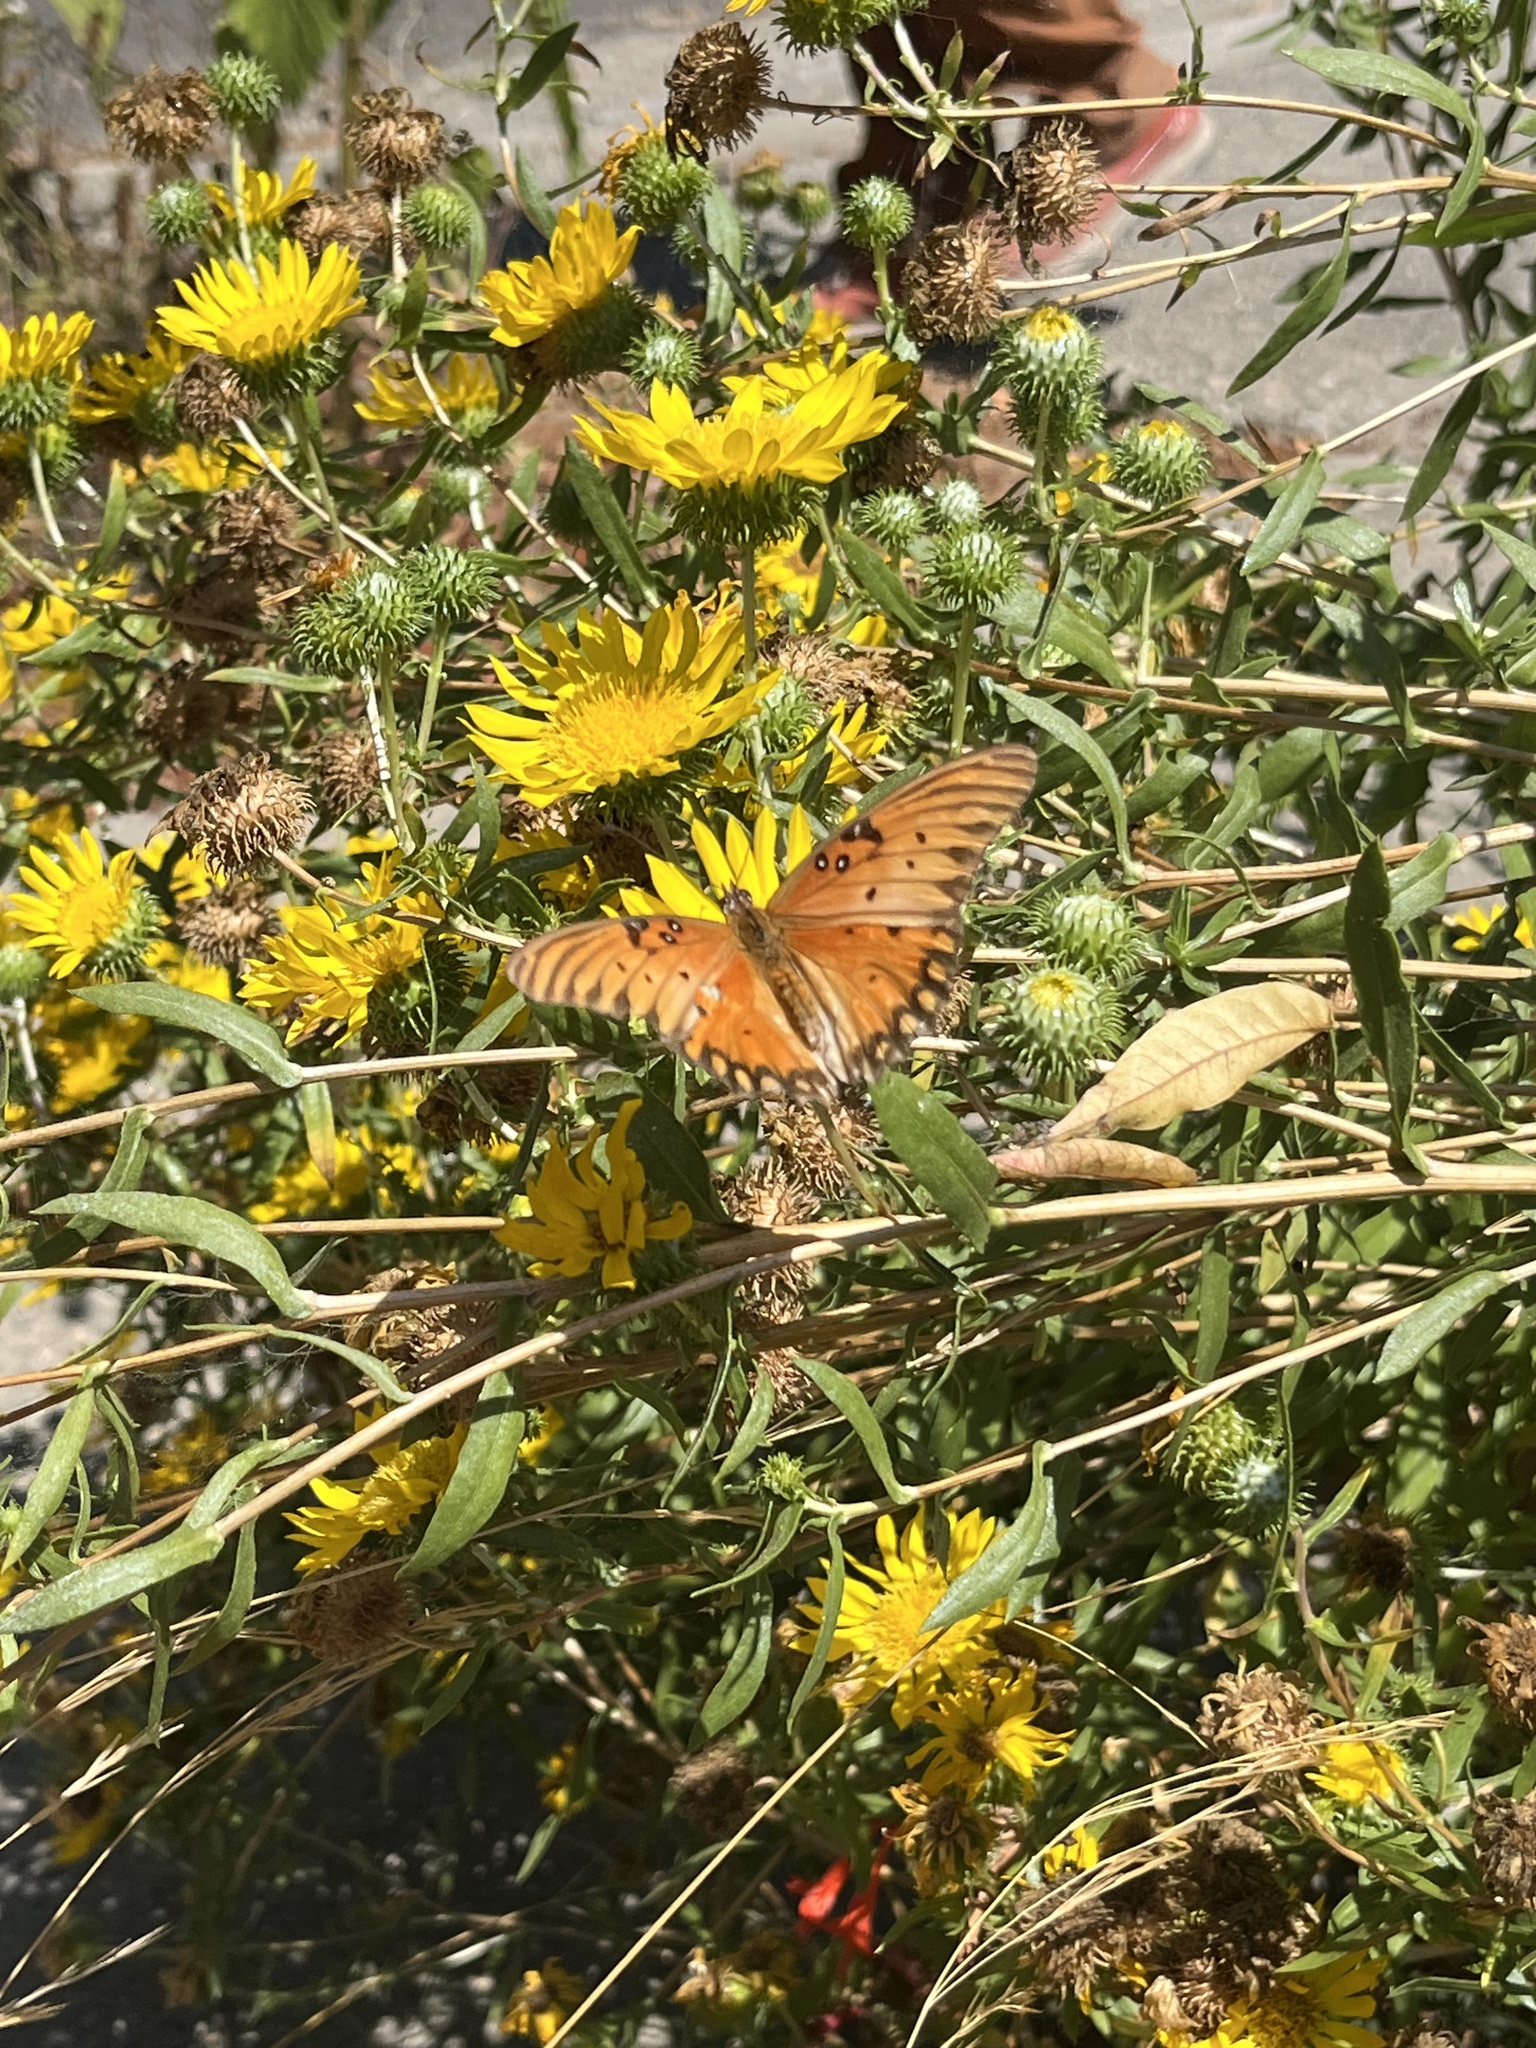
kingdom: Animalia
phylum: Arthropoda
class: Insecta
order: Lepidoptera
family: Nymphalidae
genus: Dione
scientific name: Dione vanillae
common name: Gulf fritillary
